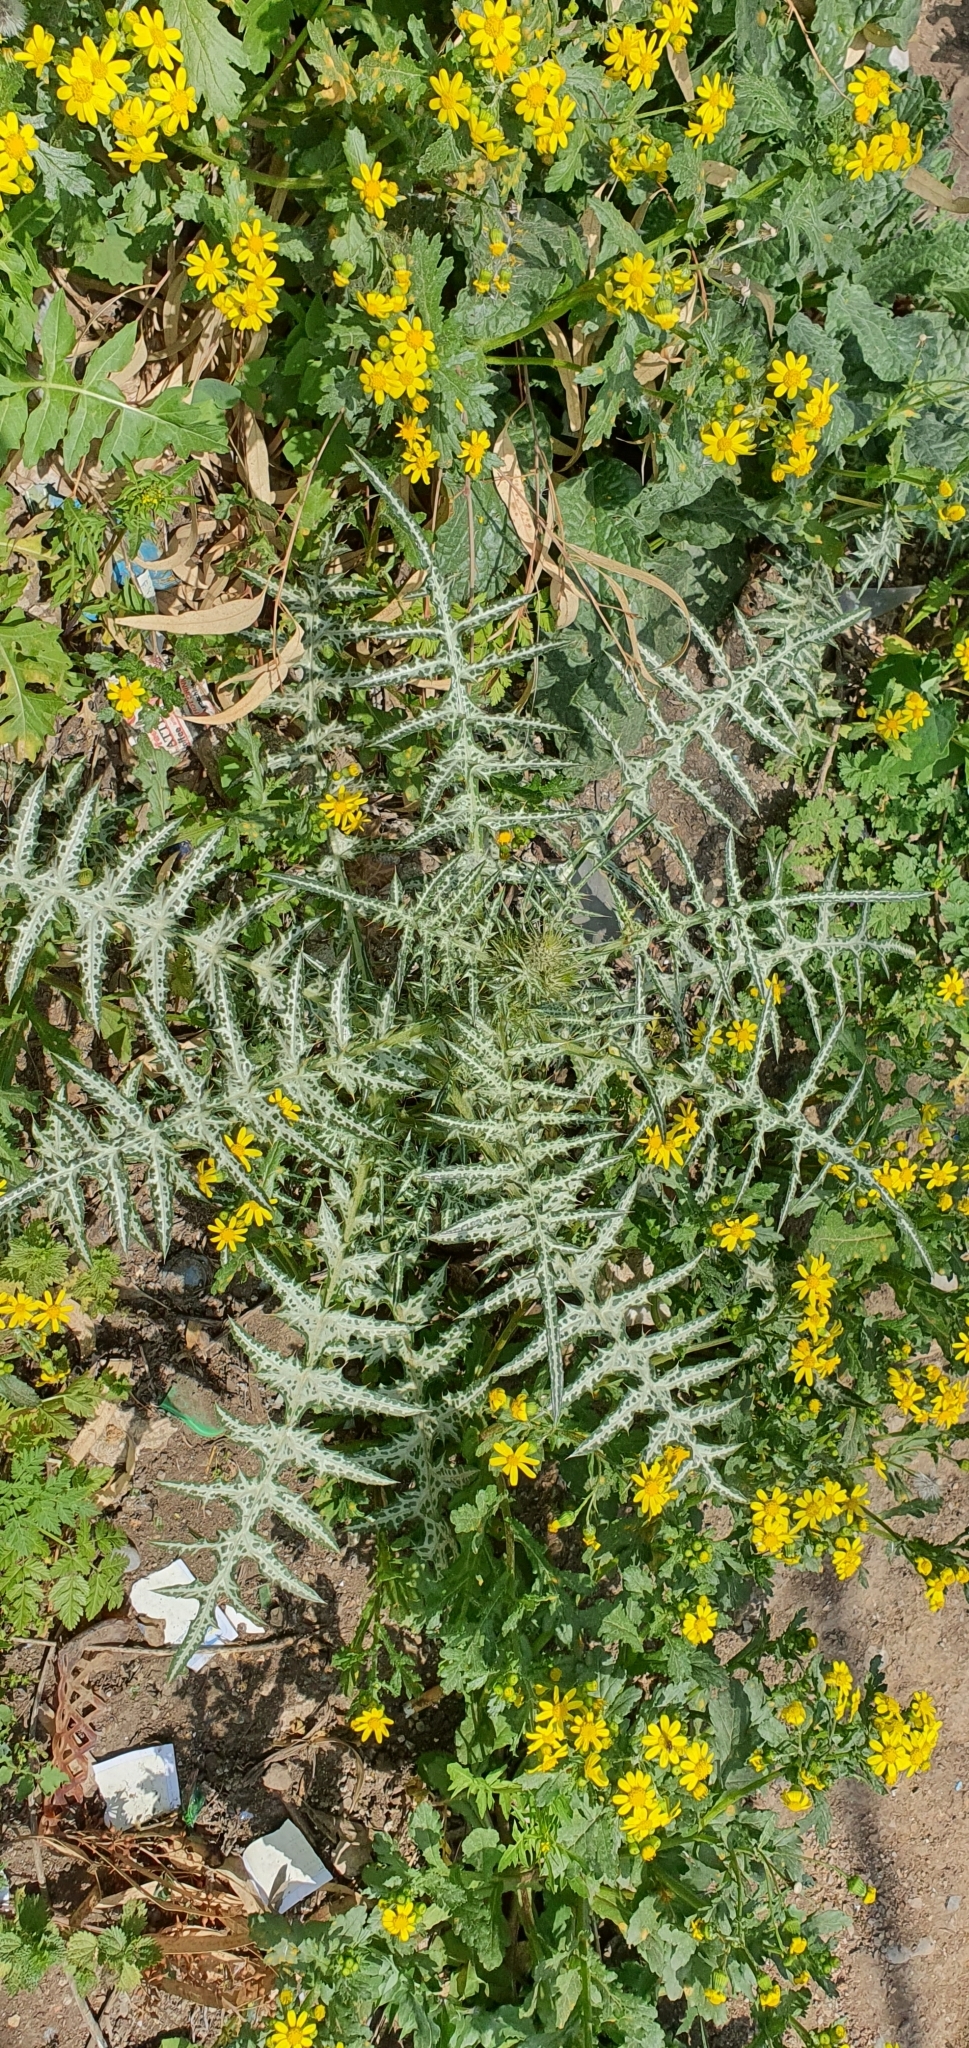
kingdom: Plantae
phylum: Tracheophyta
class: Magnoliopsida
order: Asterales
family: Asteraceae
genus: Galactites
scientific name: Galactites tomentosa
